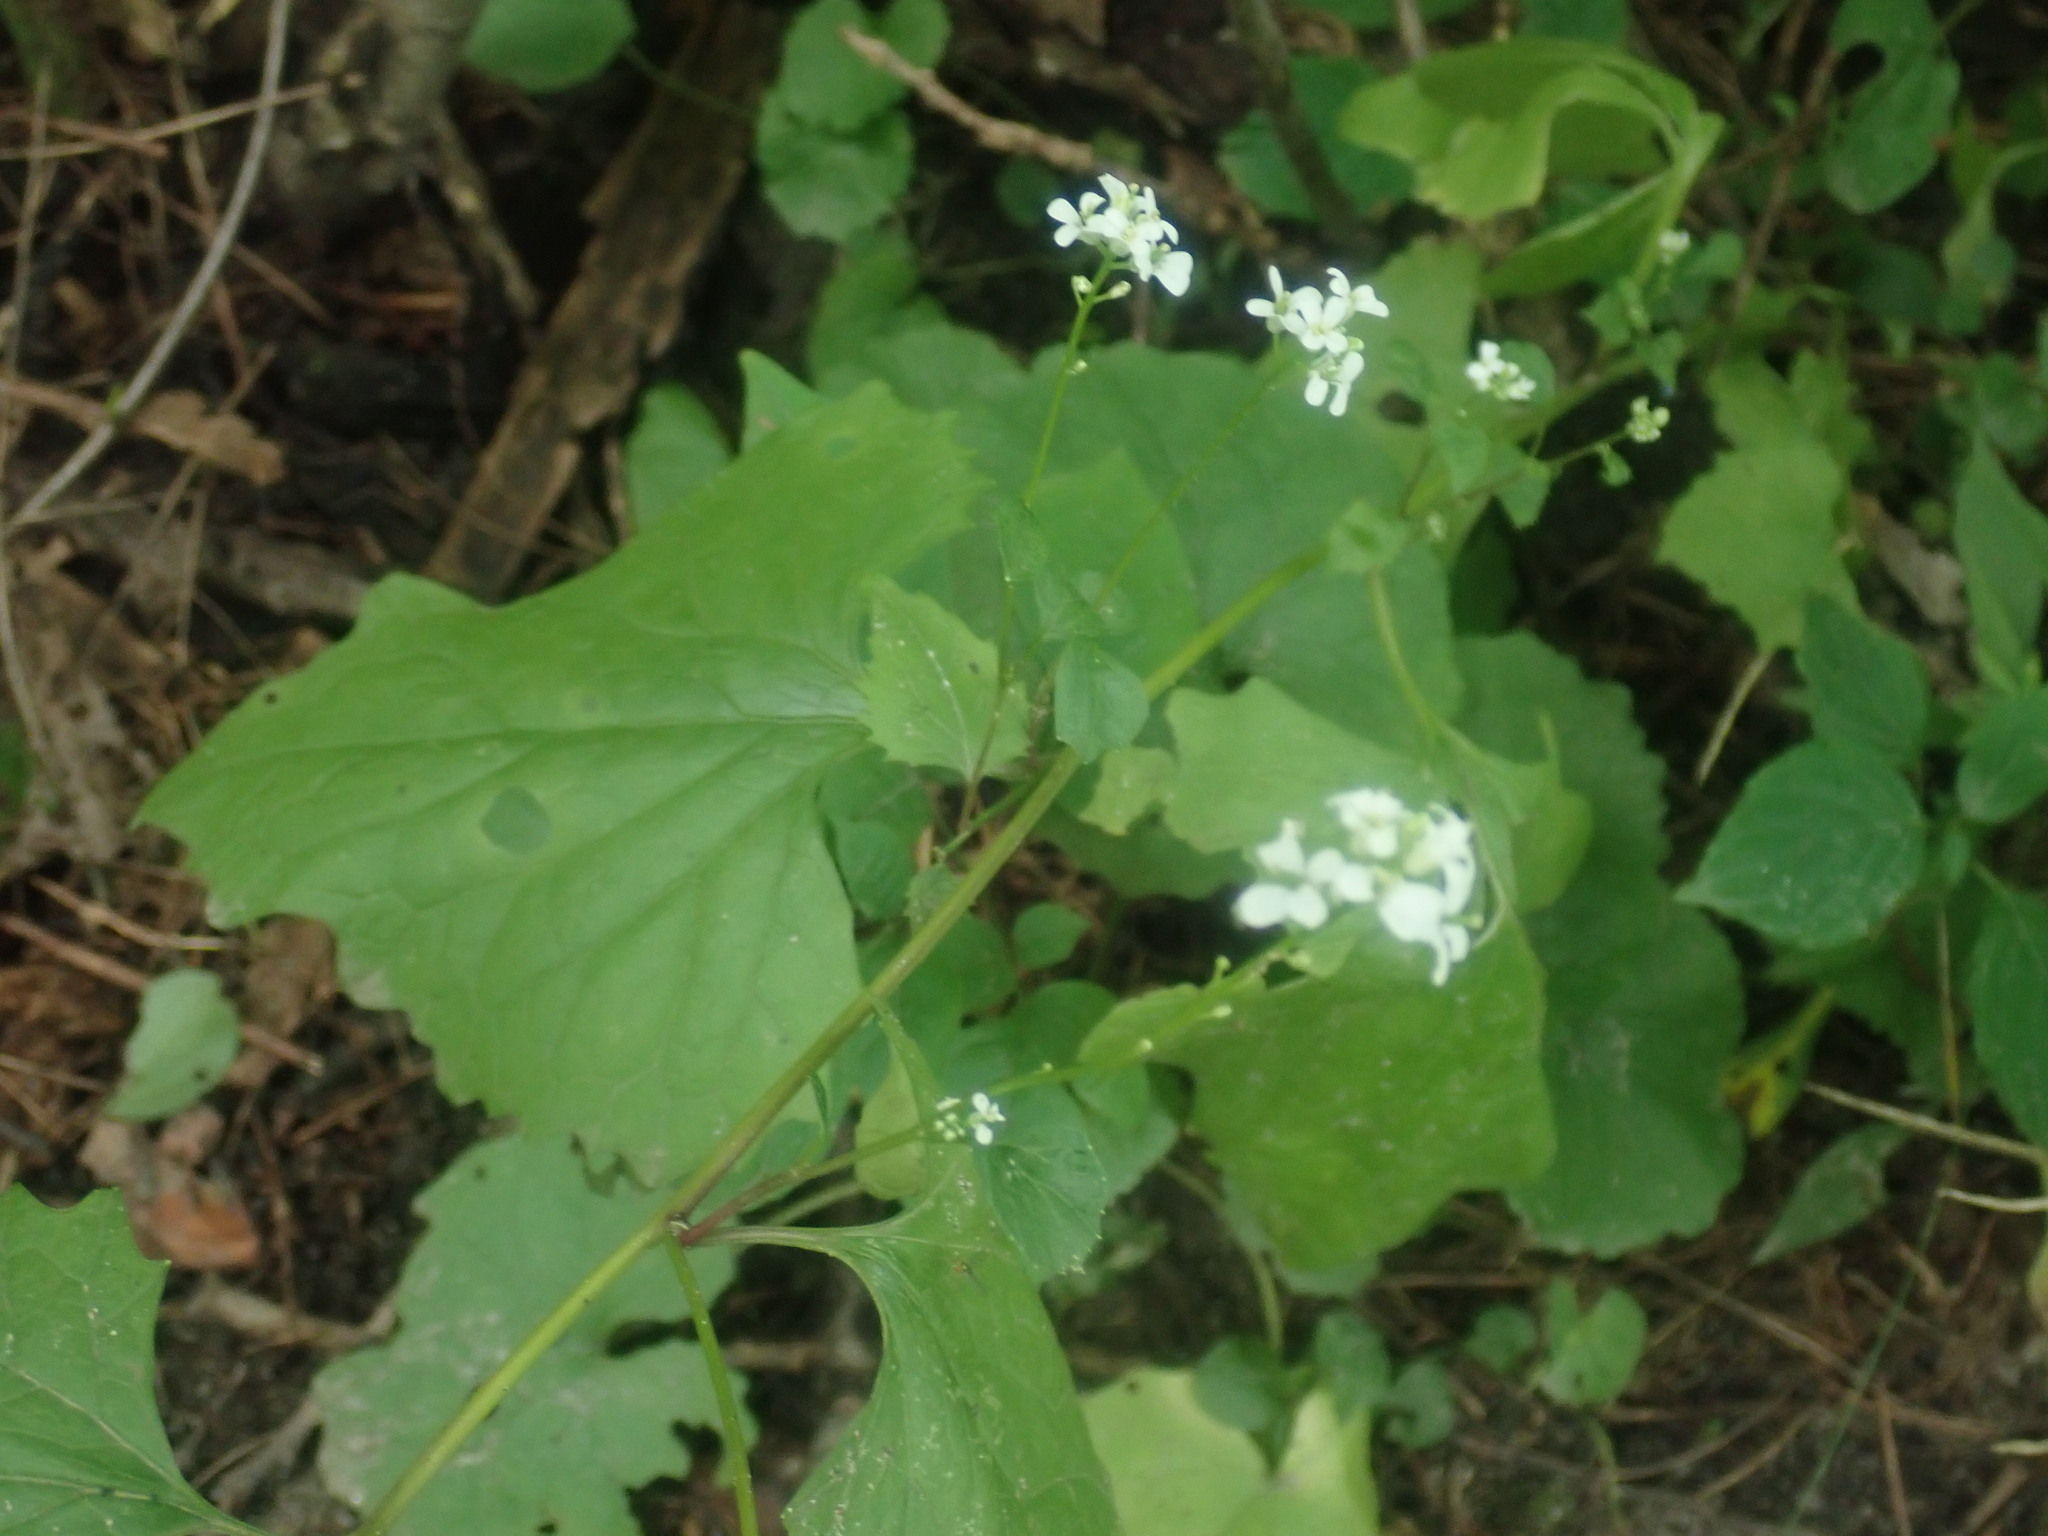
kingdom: Plantae
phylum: Tracheophyta
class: Magnoliopsida
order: Brassicales
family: Brassicaceae
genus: Alliaria
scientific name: Alliaria petiolata
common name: Garlic mustard
